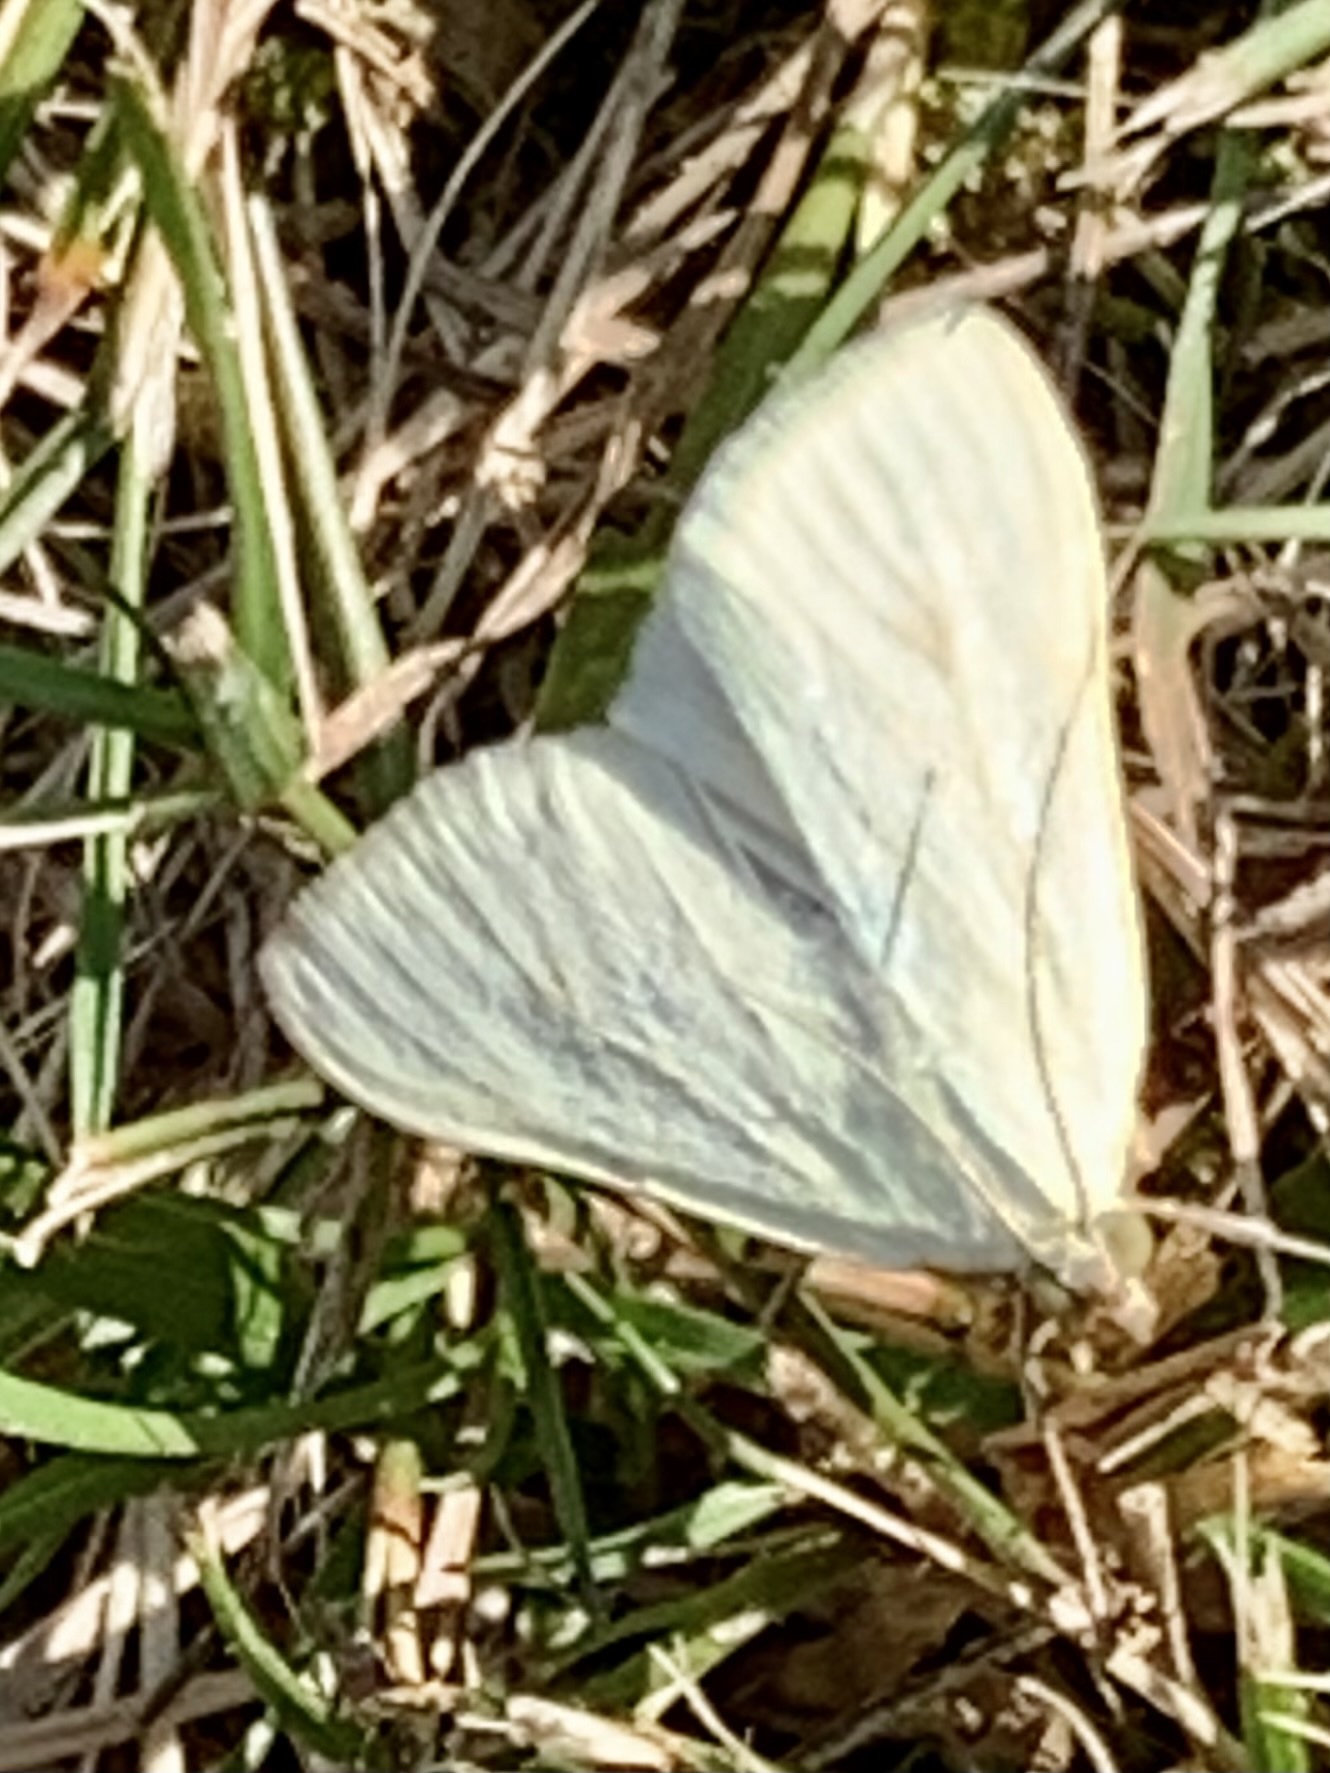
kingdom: Animalia
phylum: Arthropoda
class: Insecta
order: Lepidoptera
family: Crambidae
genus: Sitochroa
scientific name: Sitochroa palealis
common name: Greenish-yellow sitochroa moth
